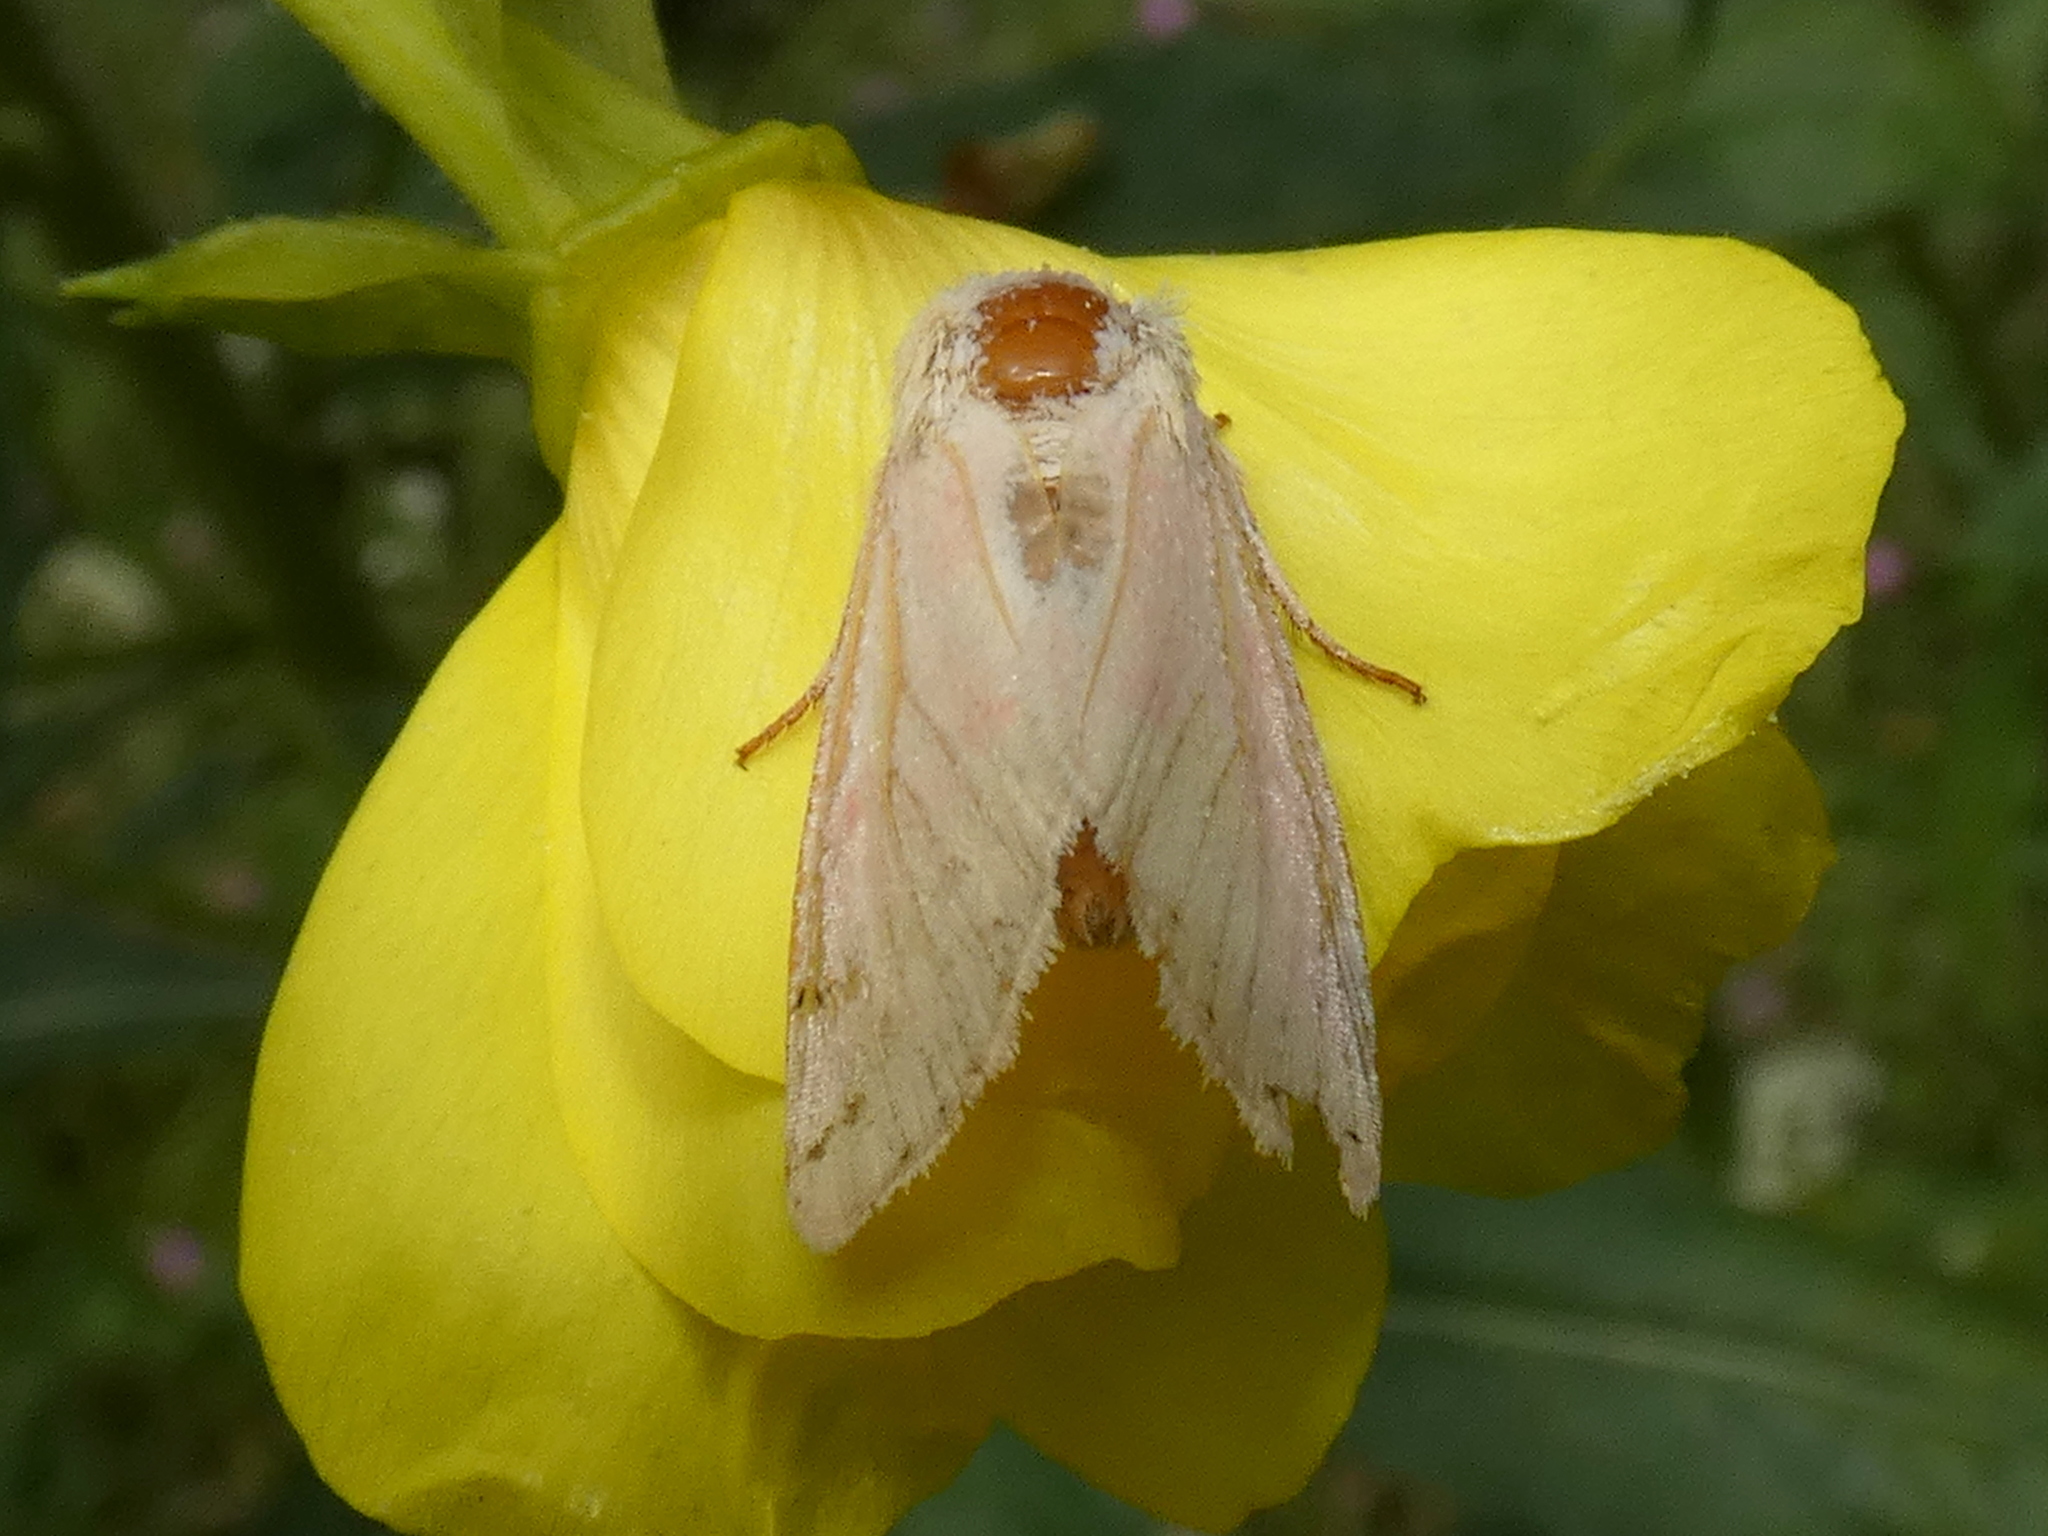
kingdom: Animalia
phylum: Arthropoda
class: Insecta
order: Lepidoptera
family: Noctuidae
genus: Schinia
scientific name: Schinia florida
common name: Primrose moth
